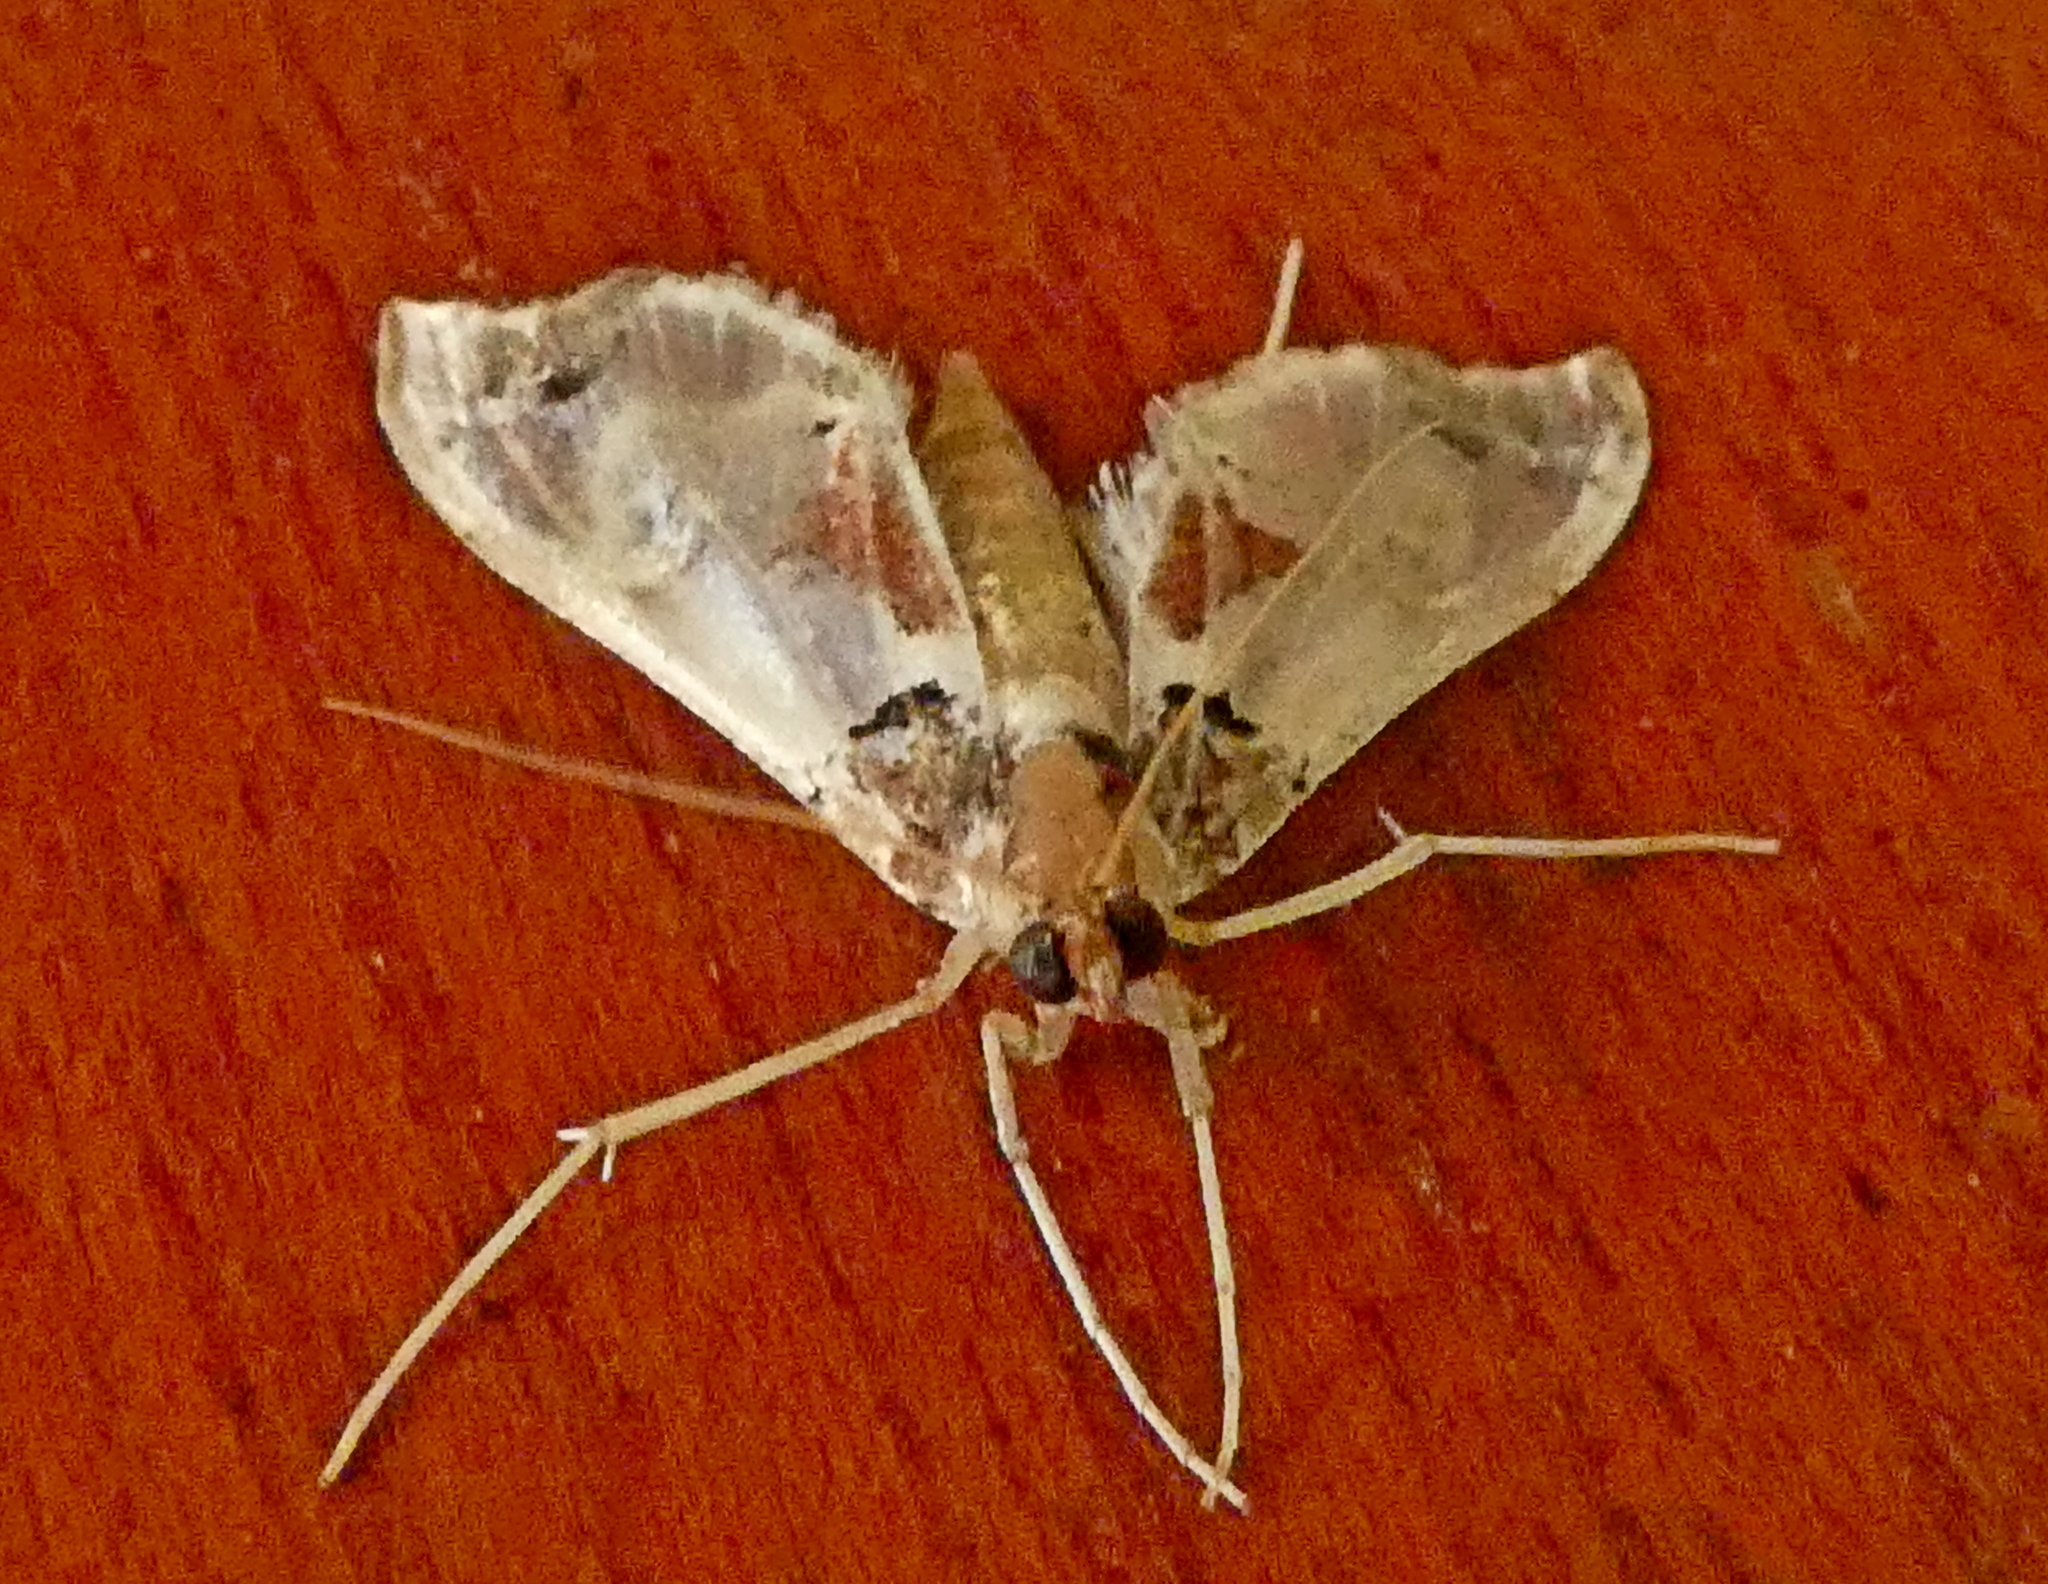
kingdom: Animalia
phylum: Arthropoda
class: Insecta
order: Lepidoptera
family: Crambidae
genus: Neoleucinodes
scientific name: Neoleucinodes elegantalis
